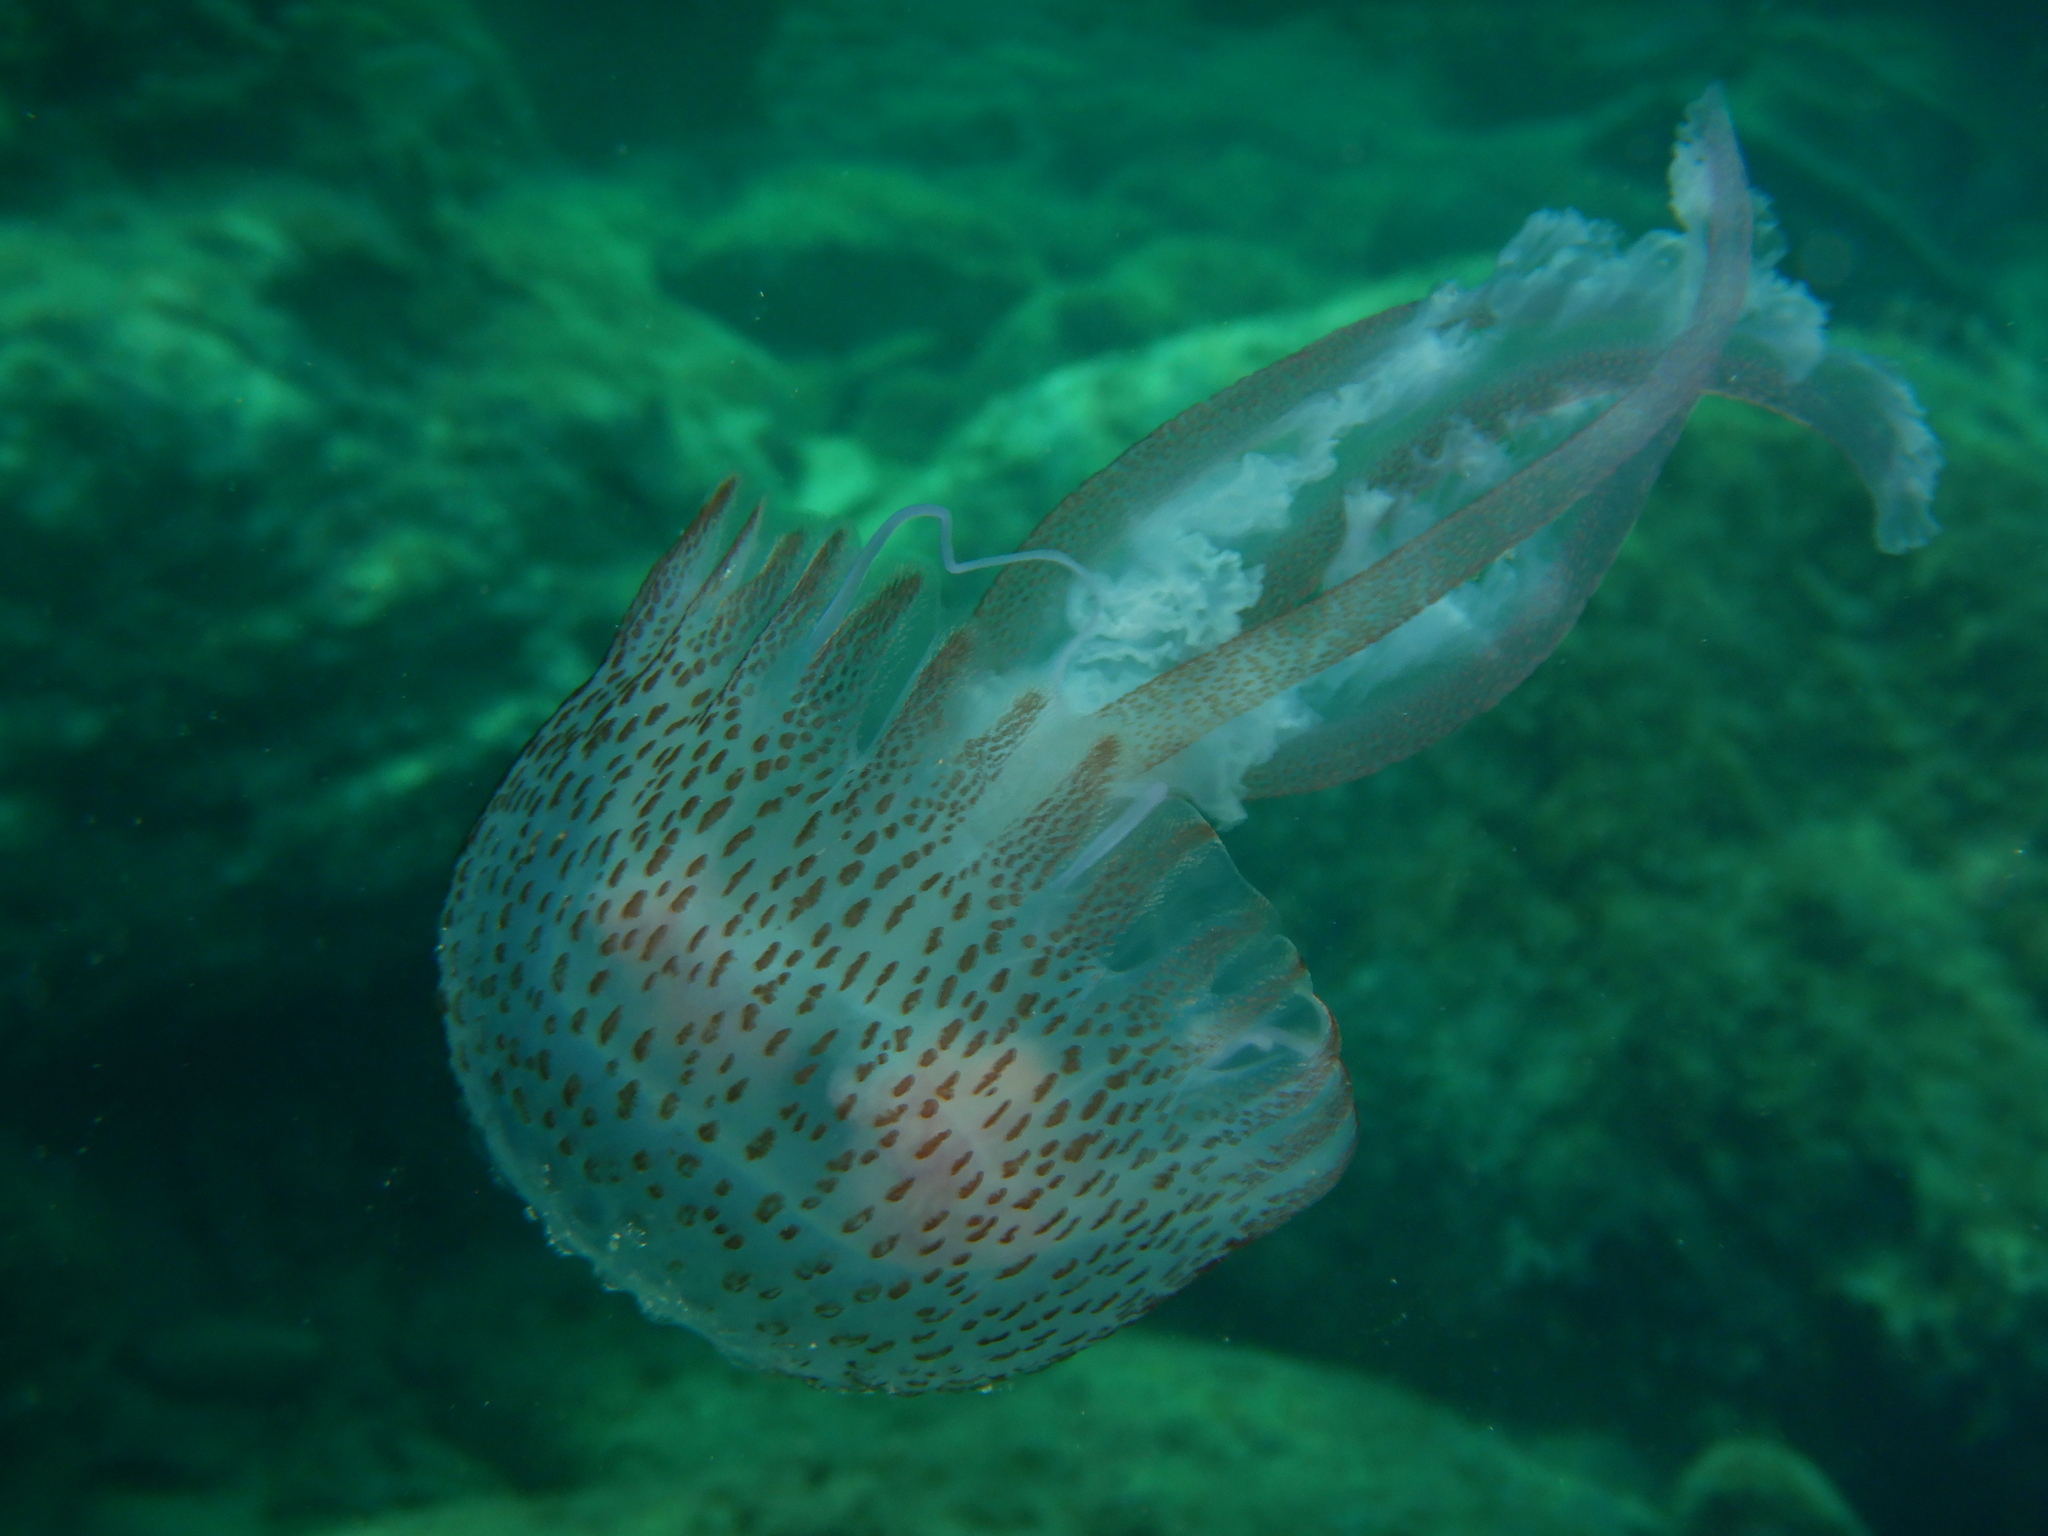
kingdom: Animalia
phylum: Cnidaria
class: Scyphozoa
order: Semaeostomeae
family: Pelagiidae
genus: Pelagia
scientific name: Pelagia noctiluca
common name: Mauve stinger
